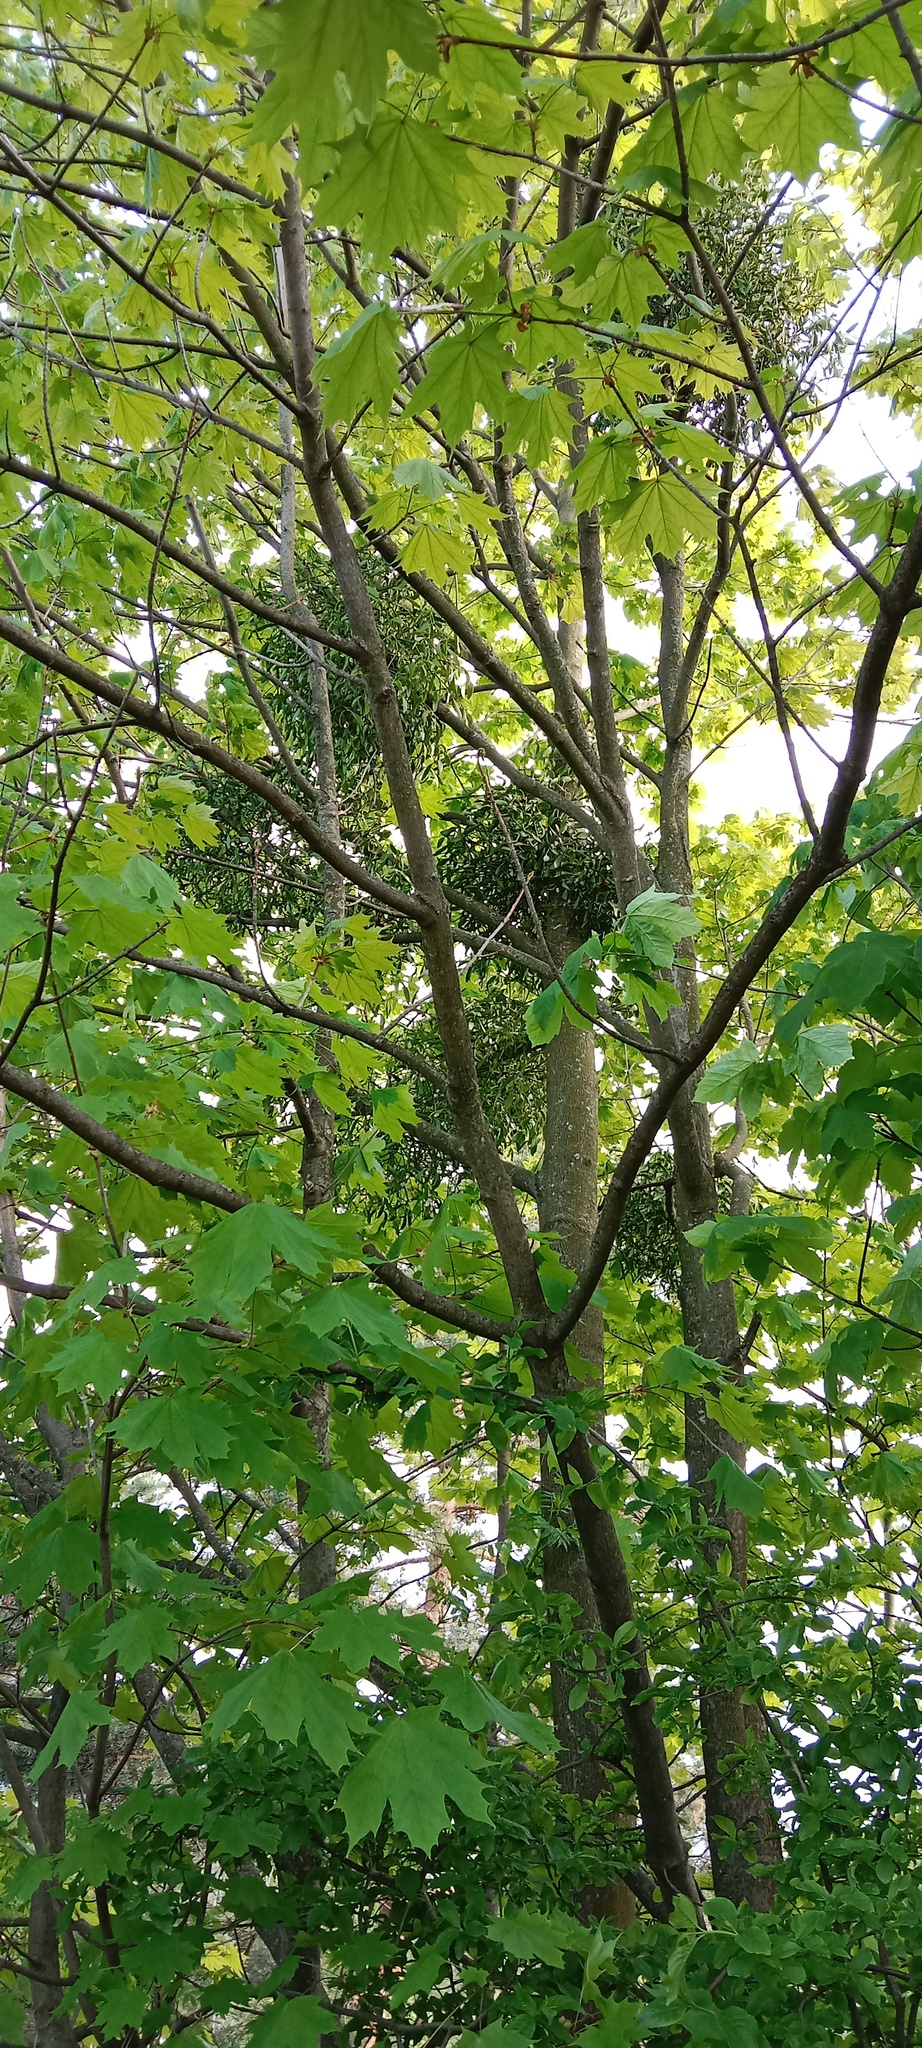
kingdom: Plantae
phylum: Tracheophyta
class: Magnoliopsida
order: Santalales
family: Viscaceae
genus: Viscum
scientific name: Viscum album
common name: Mistletoe
